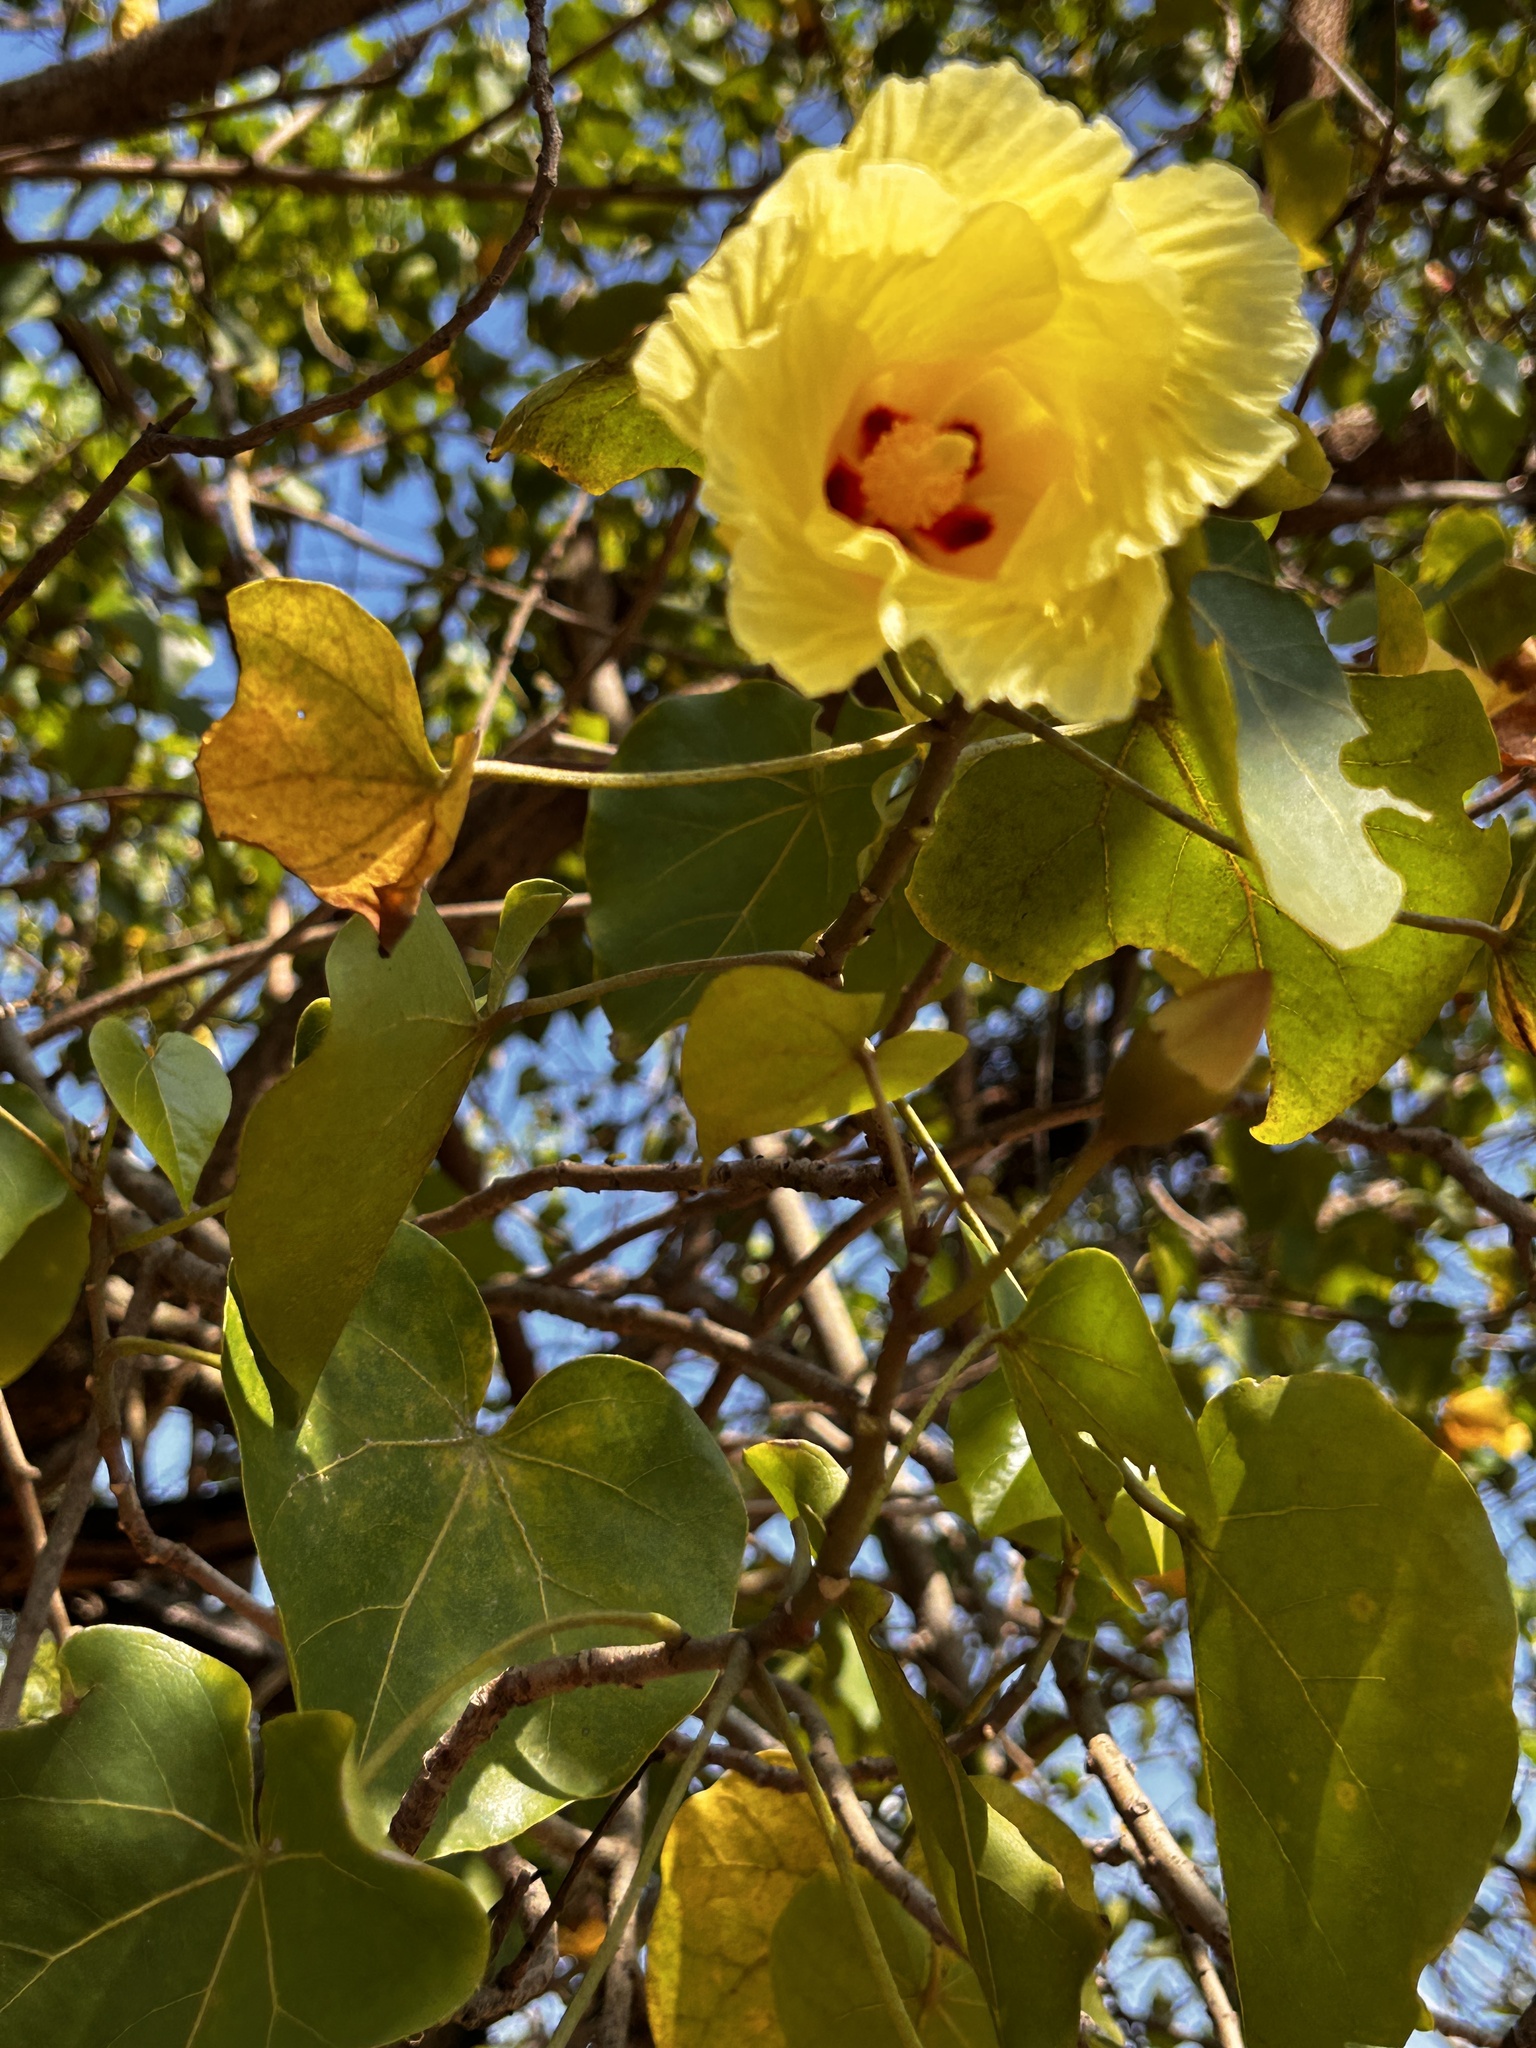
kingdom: Plantae
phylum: Tracheophyta
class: Magnoliopsida
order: Malvales
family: Malvaceae
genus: Thespesia
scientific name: Thespesia populnea
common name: Seaside mahoe
